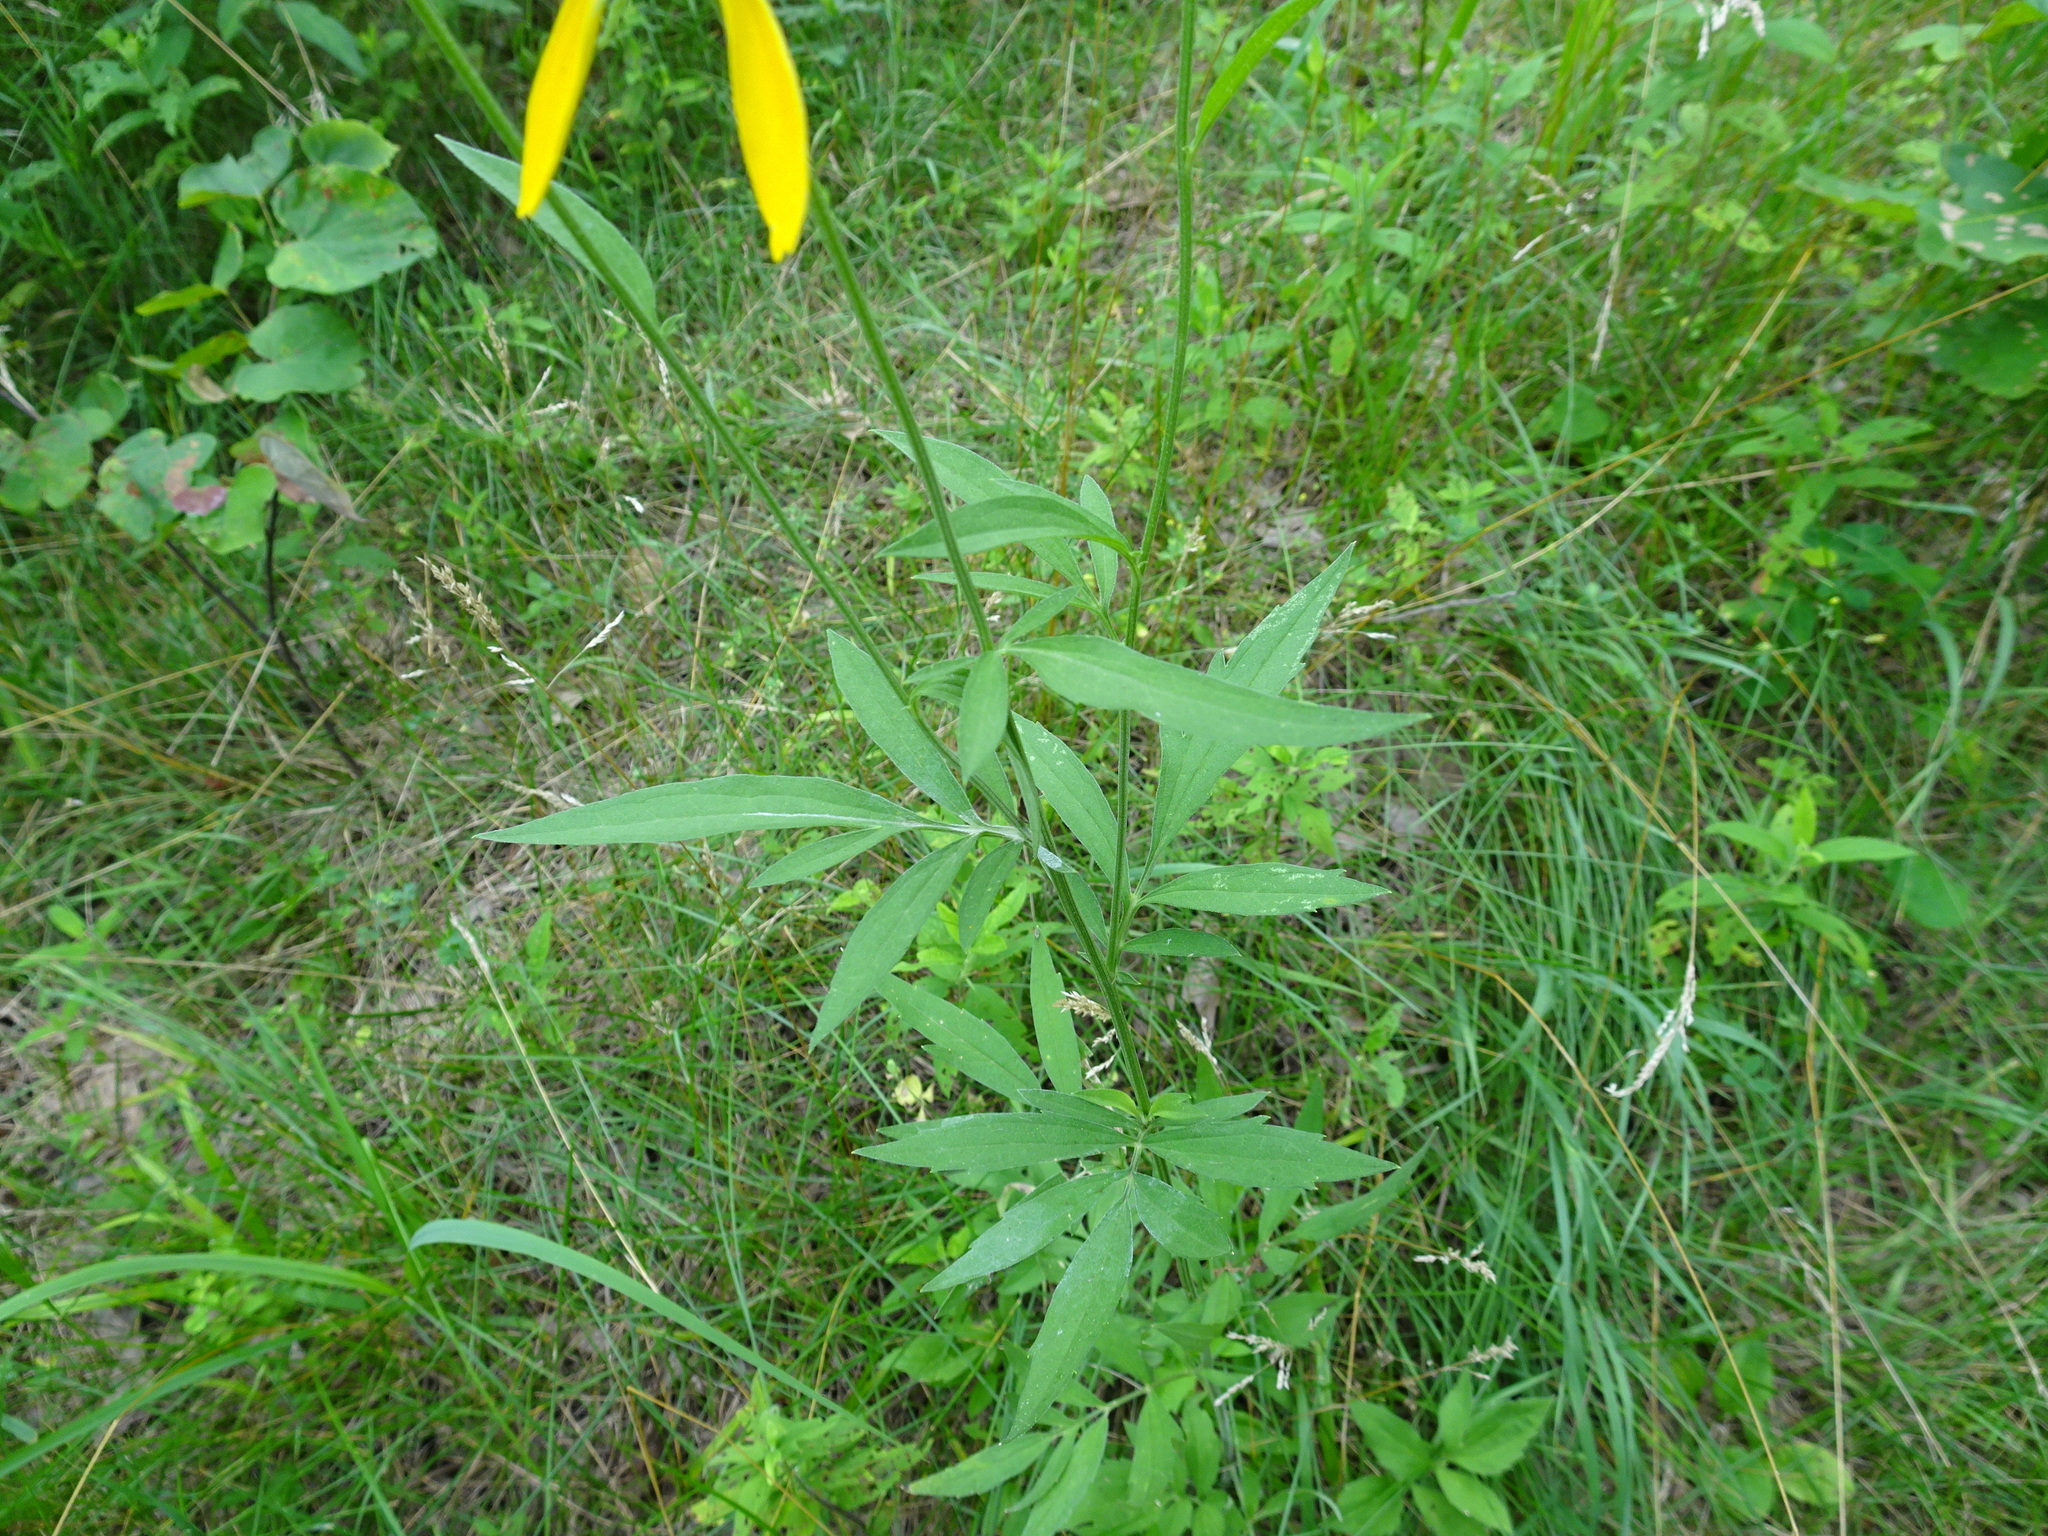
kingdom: Plantae
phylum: Tracheophyta
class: Magnoliopsida
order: Asterales
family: Asteraceae
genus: Ratibida
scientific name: Ratibida pinnata
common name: Drooping prairie-coneflower
